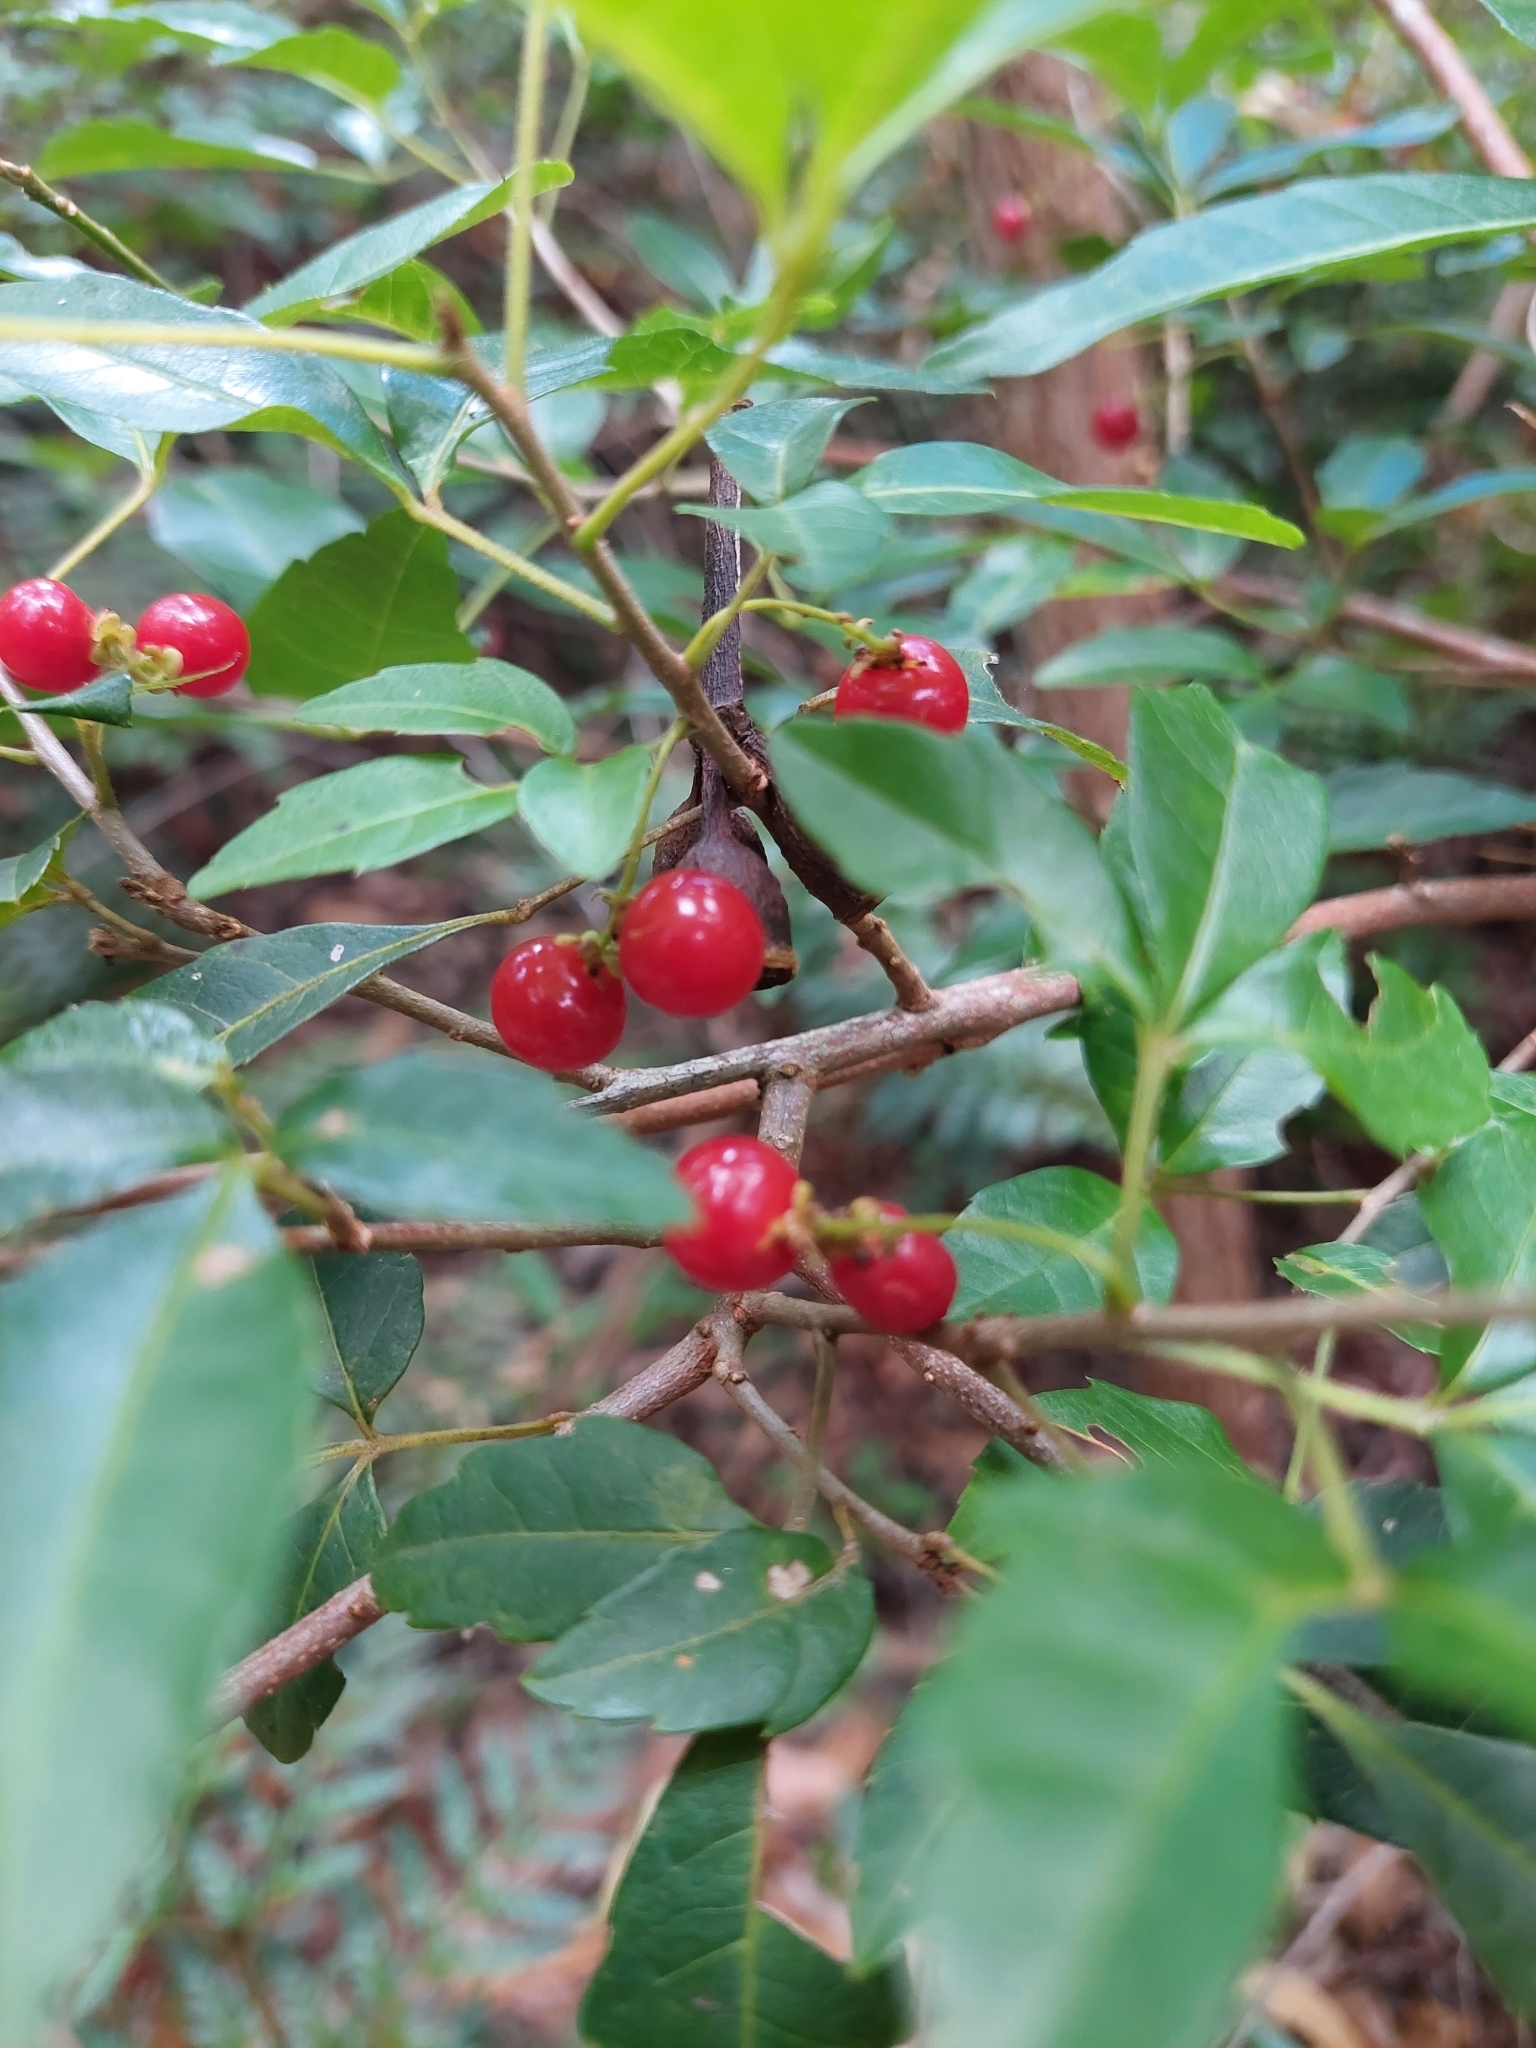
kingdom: Plantae
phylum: Tracheophyta
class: Magnoliopsida
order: Sapindales
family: Sapindaceae
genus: Allophylus
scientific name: Allophylus edulis
